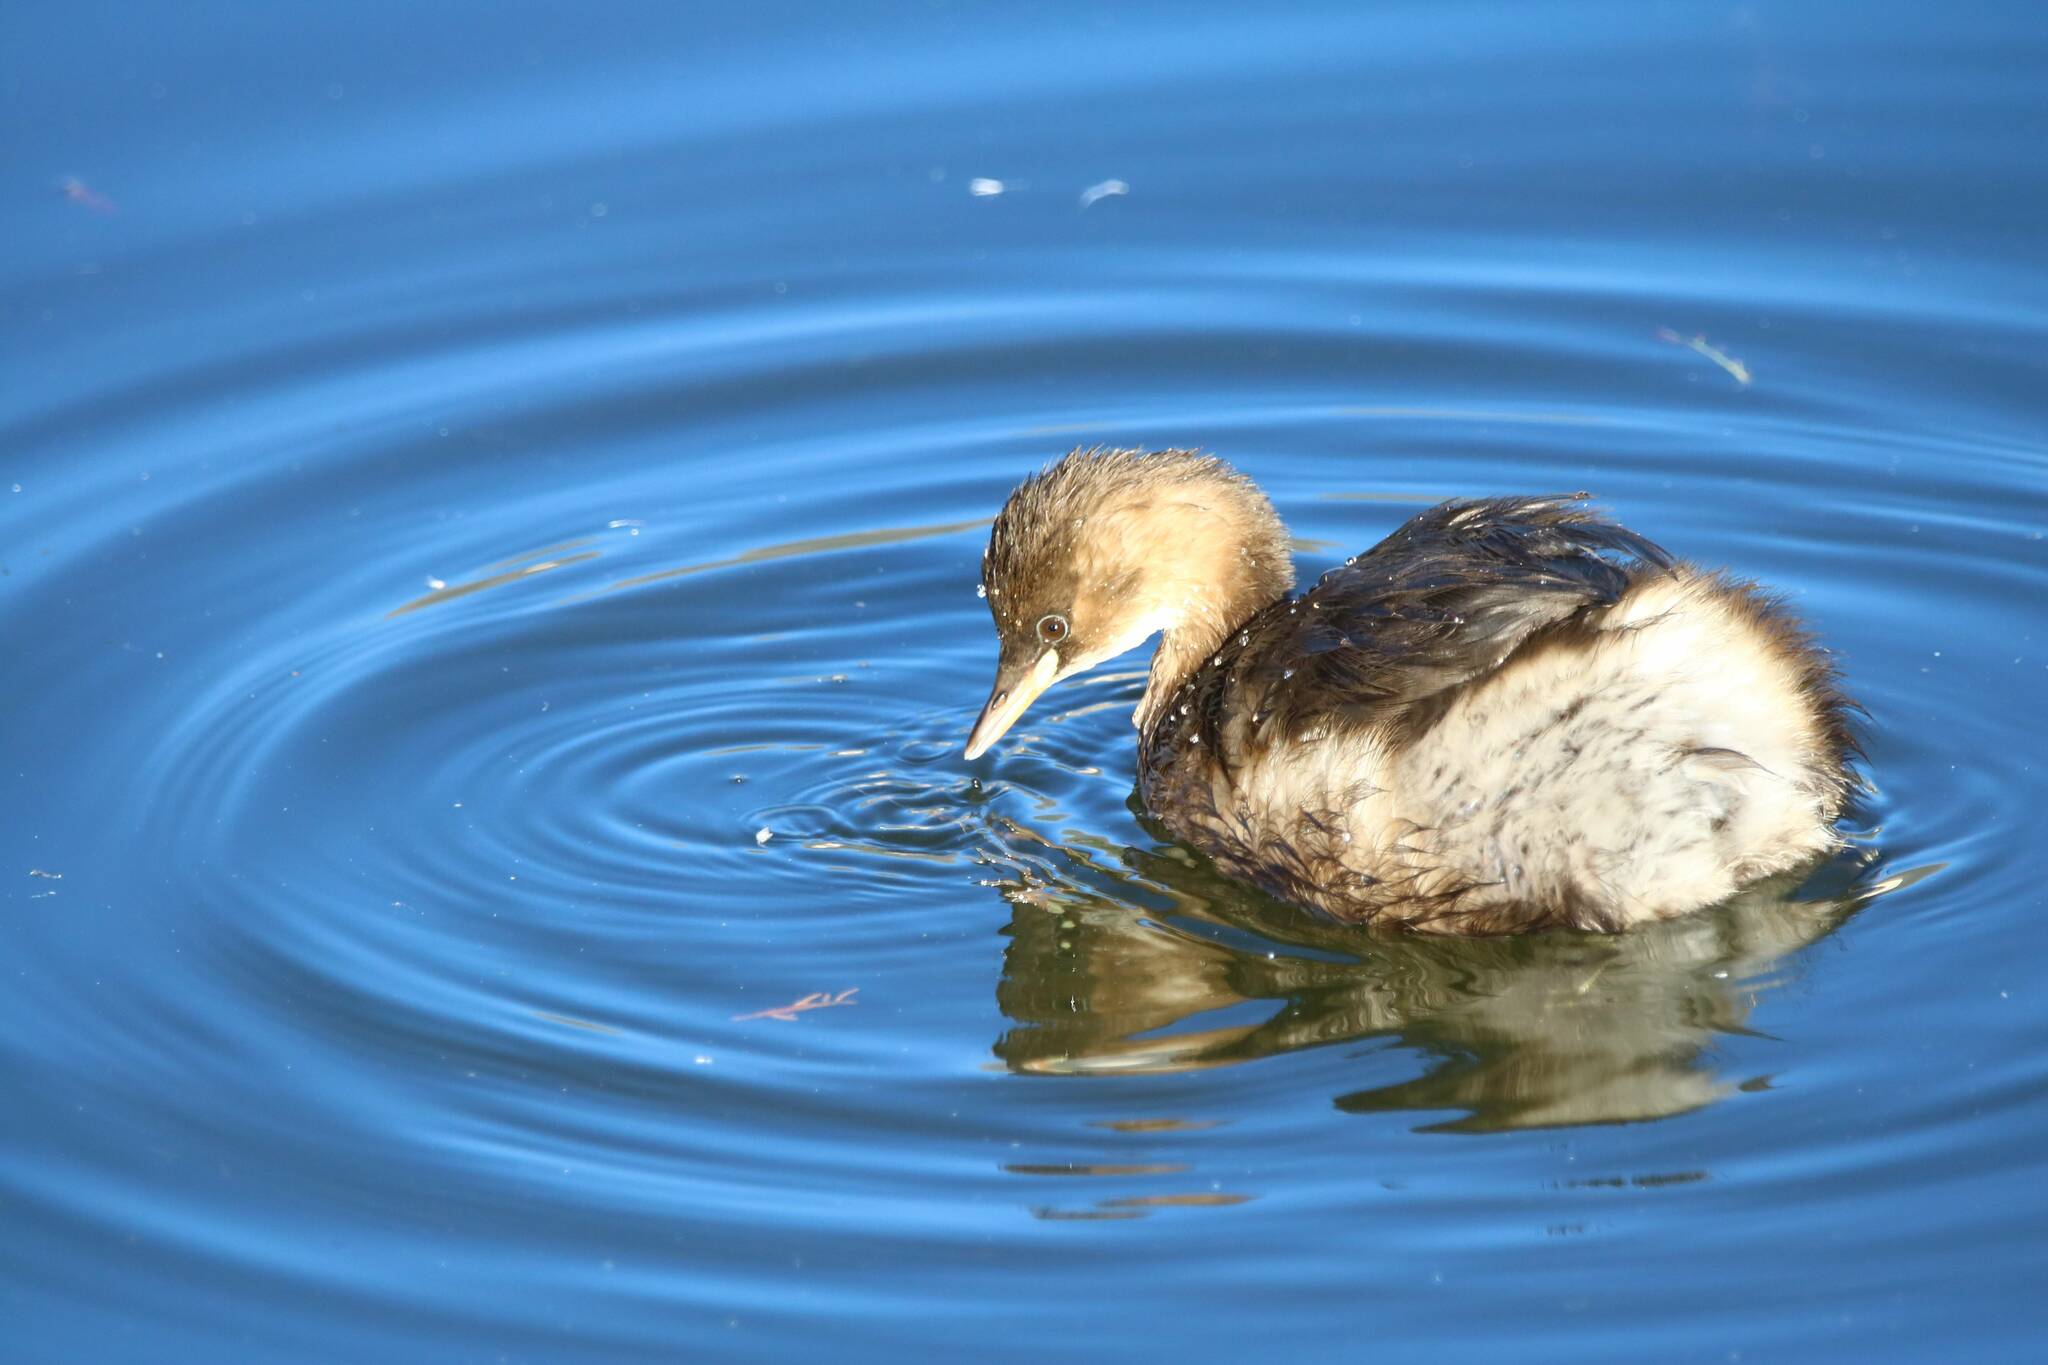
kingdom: Animalia
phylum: Chordata
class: Aves
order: Podicipediformes
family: Podicipedidae
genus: Tachybaptus
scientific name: Tachybaptus ruficollis
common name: Little grebe
